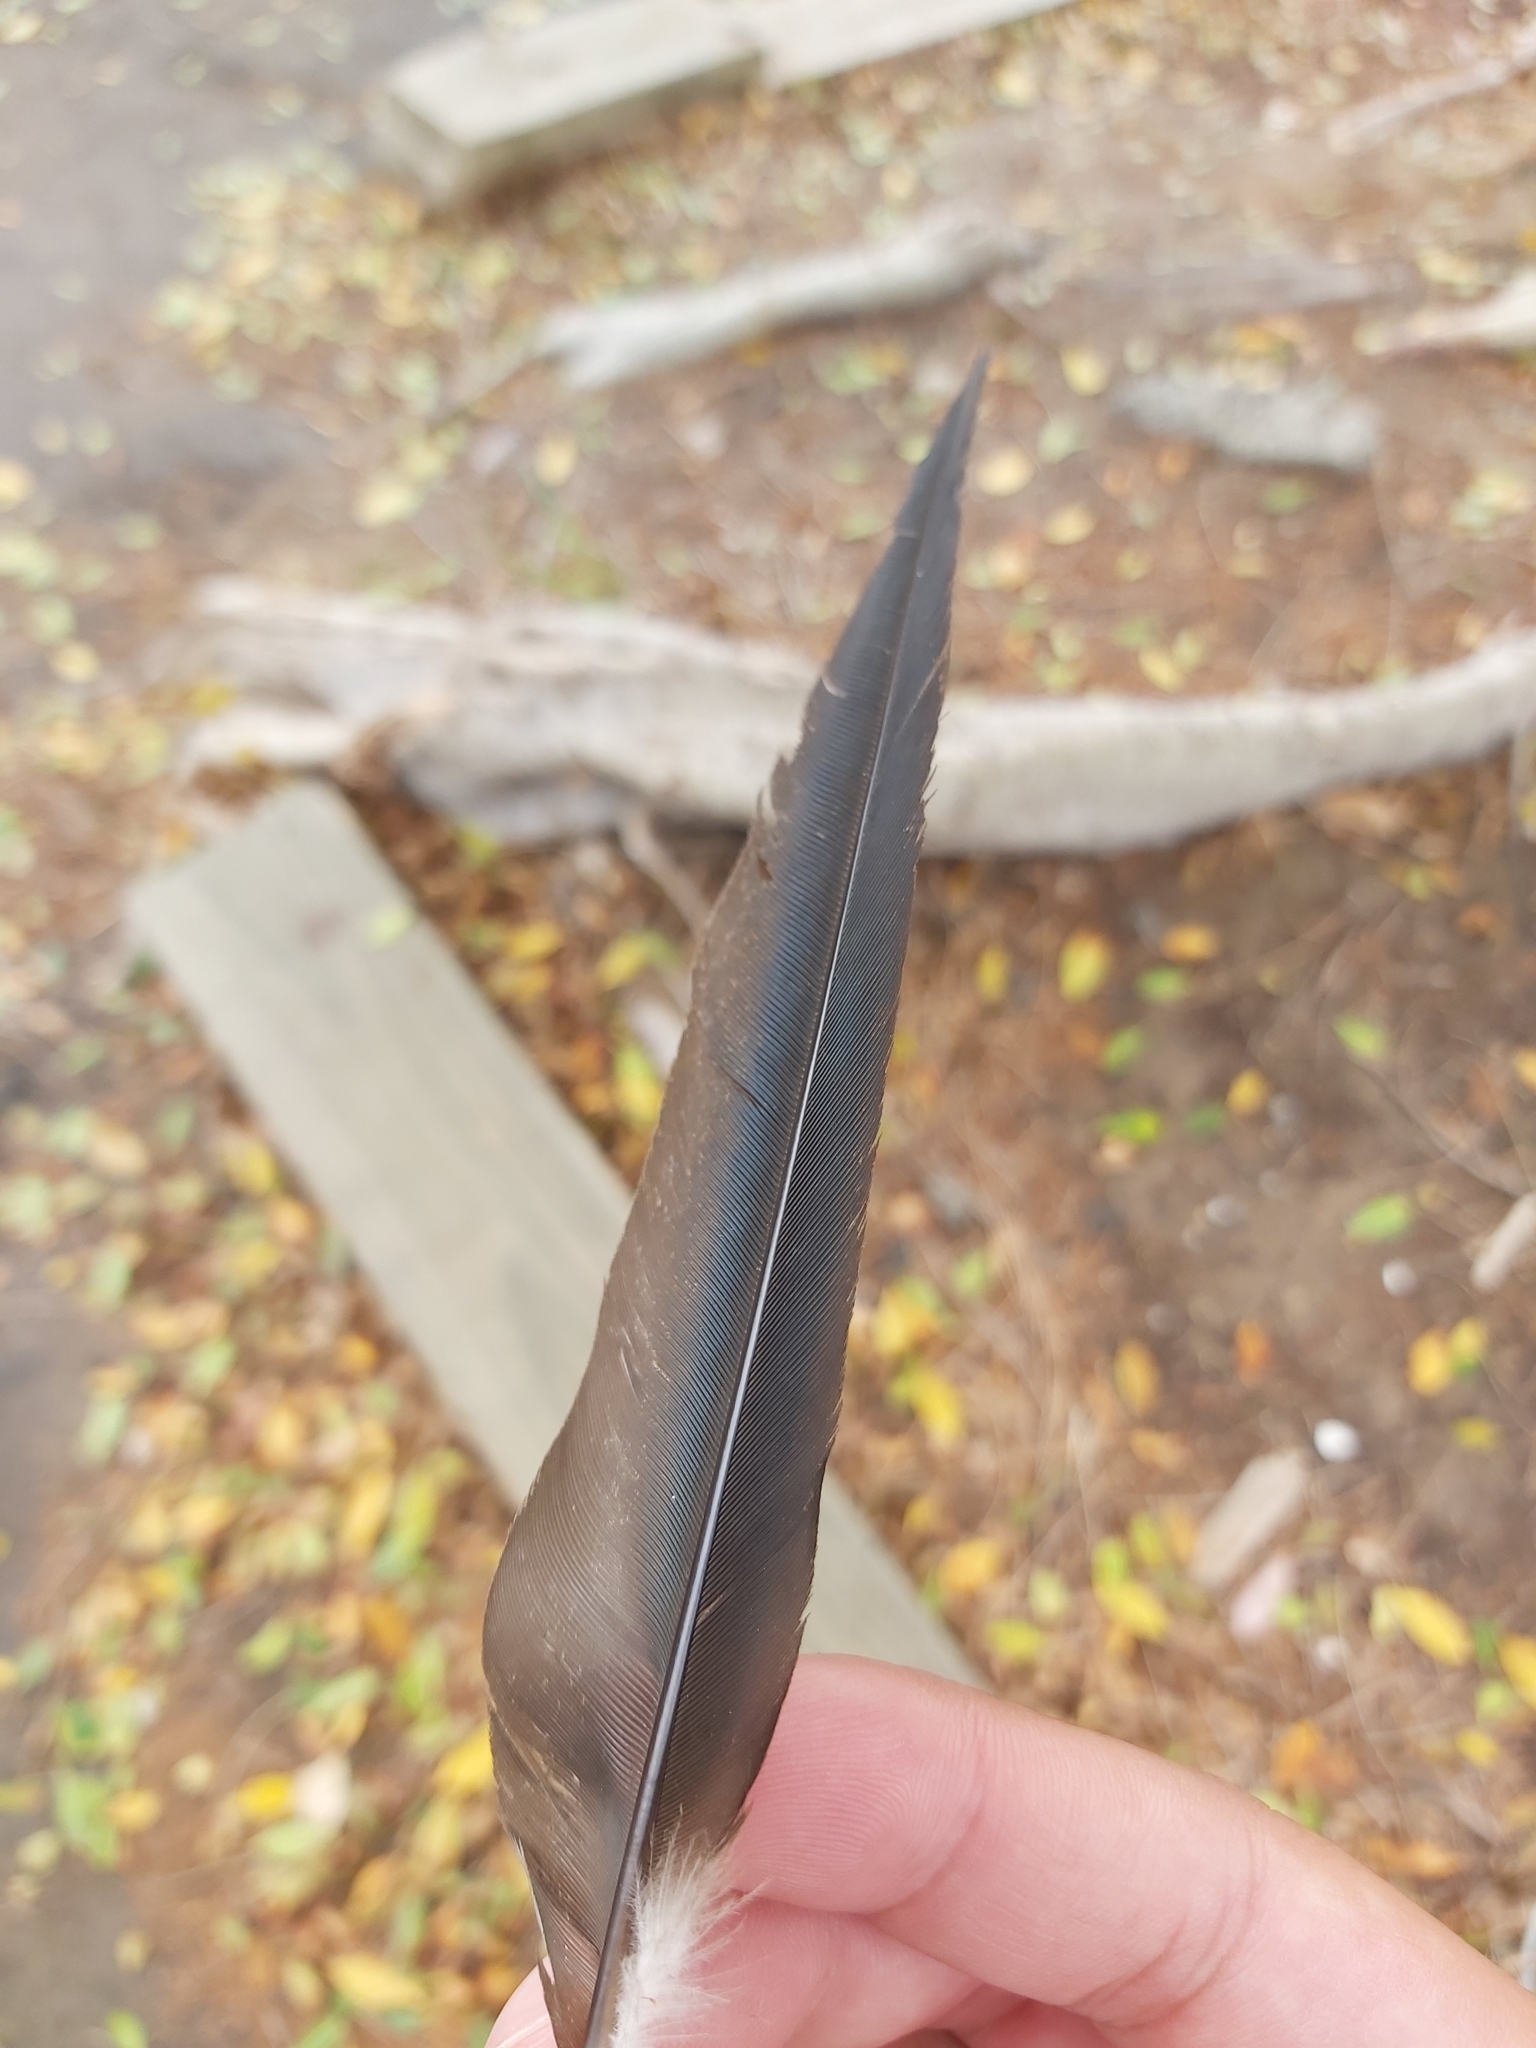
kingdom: Animalia
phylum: Chordata
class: Aves
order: Gruiformes
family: Rallidae
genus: Porphyrio
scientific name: Porphyrio melanotus
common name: Australasian swamphen
